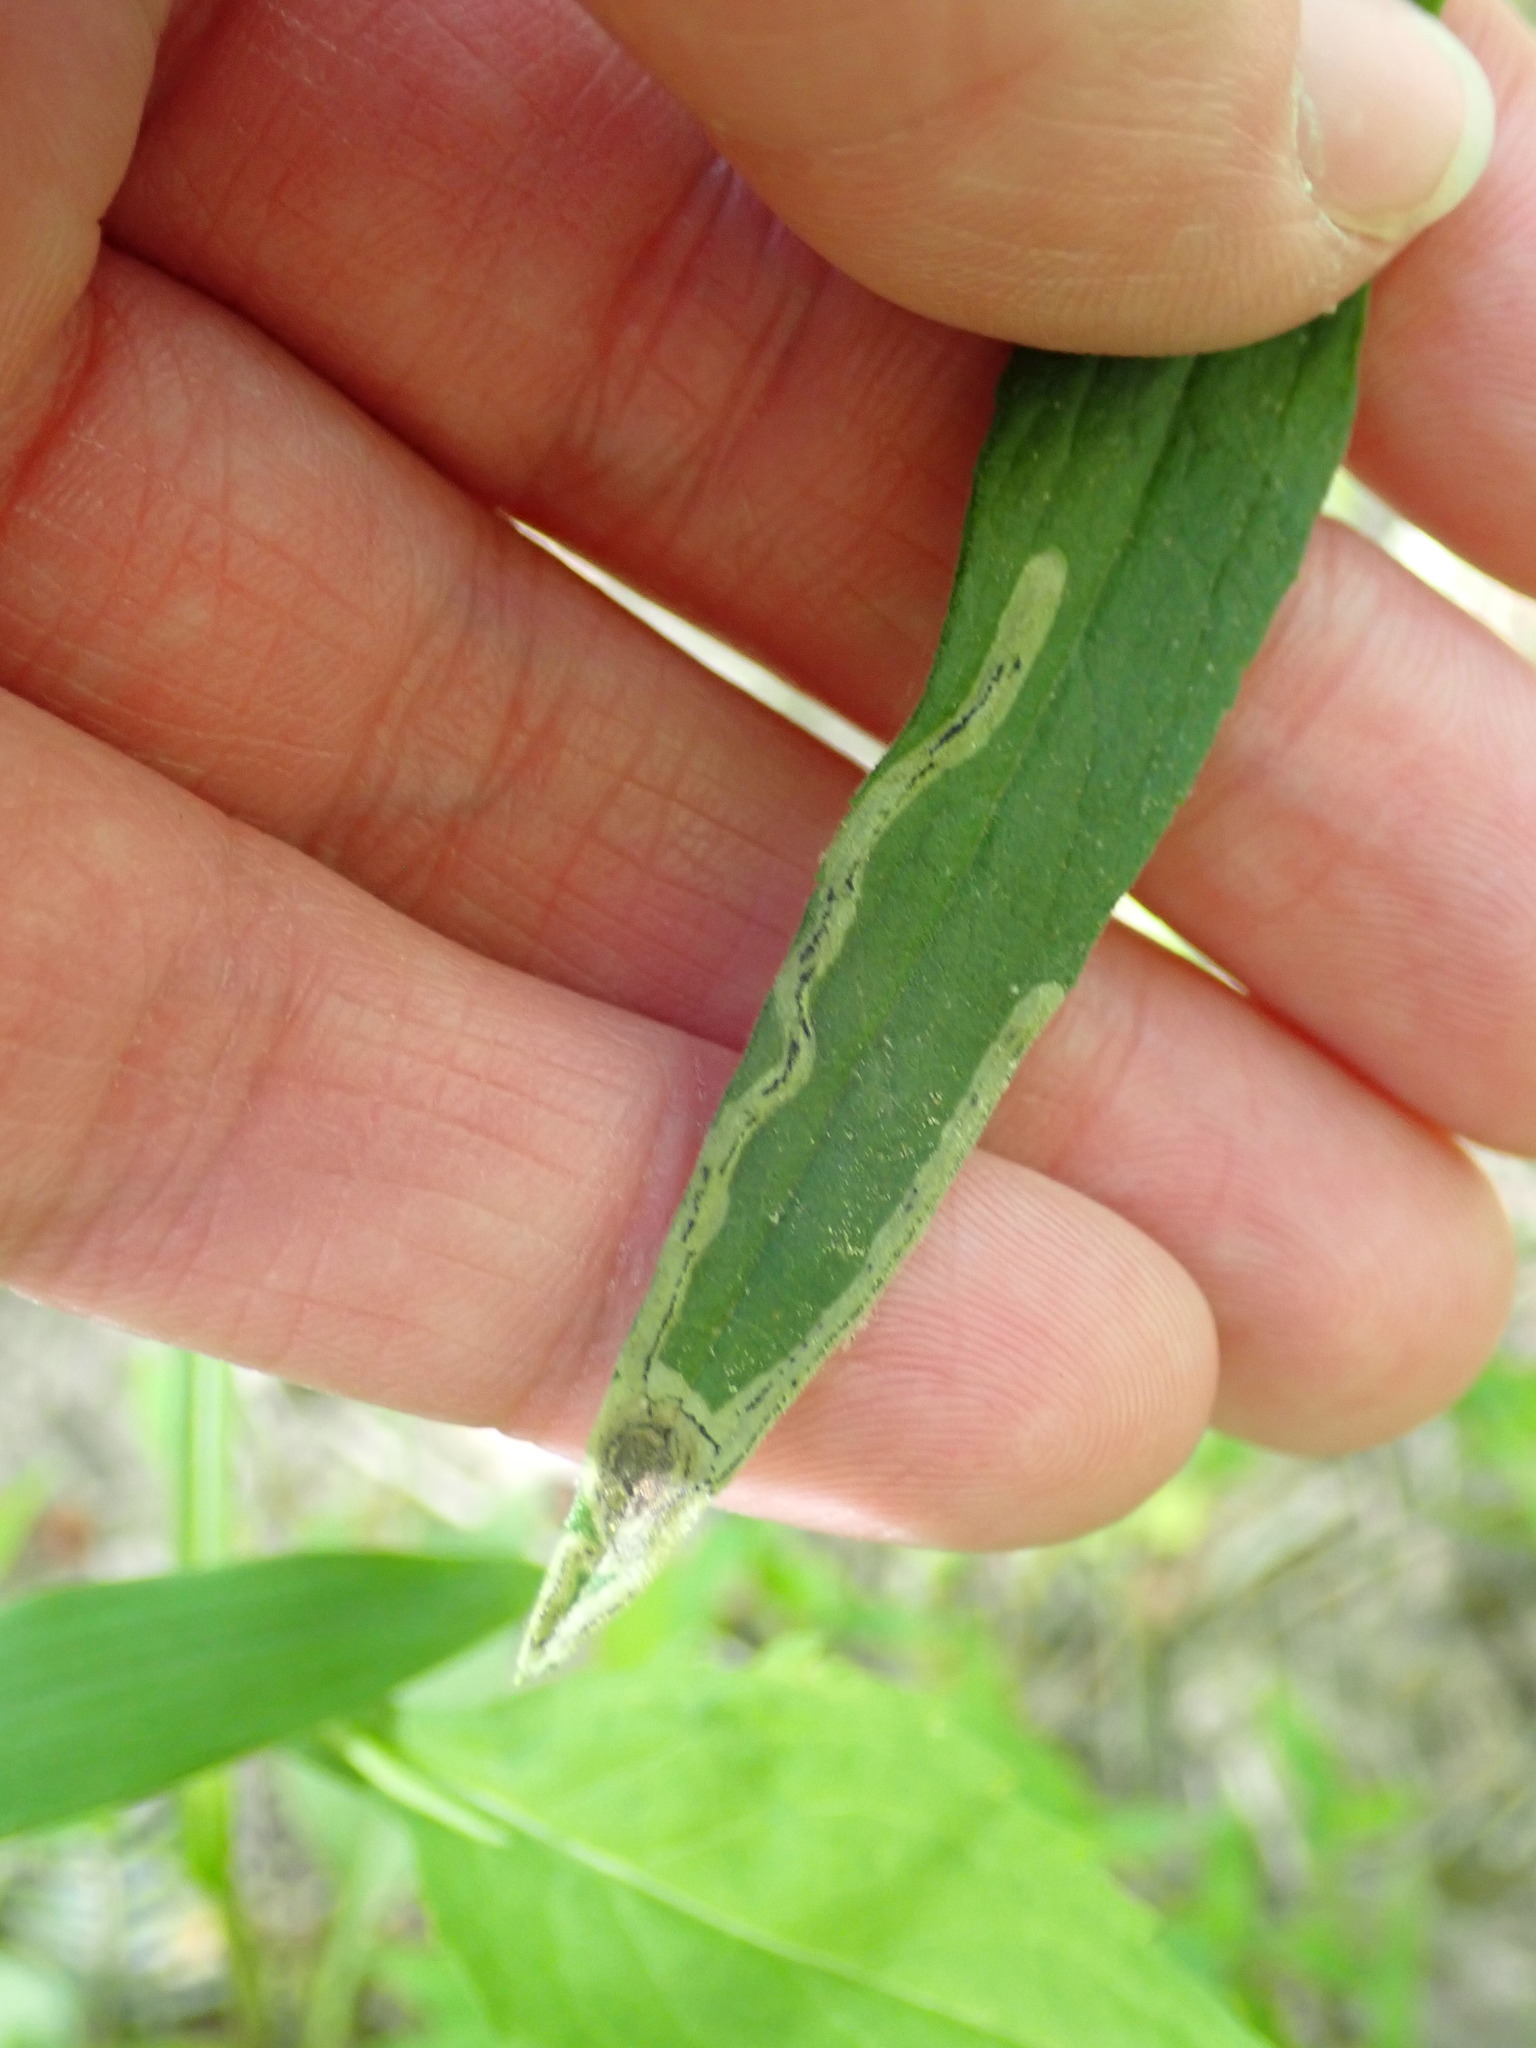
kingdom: Animalia
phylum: Arthropoda
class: Insecta
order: Diptera
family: Agromyzidae
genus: Liriomyza
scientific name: Liriomyza eupatorii
